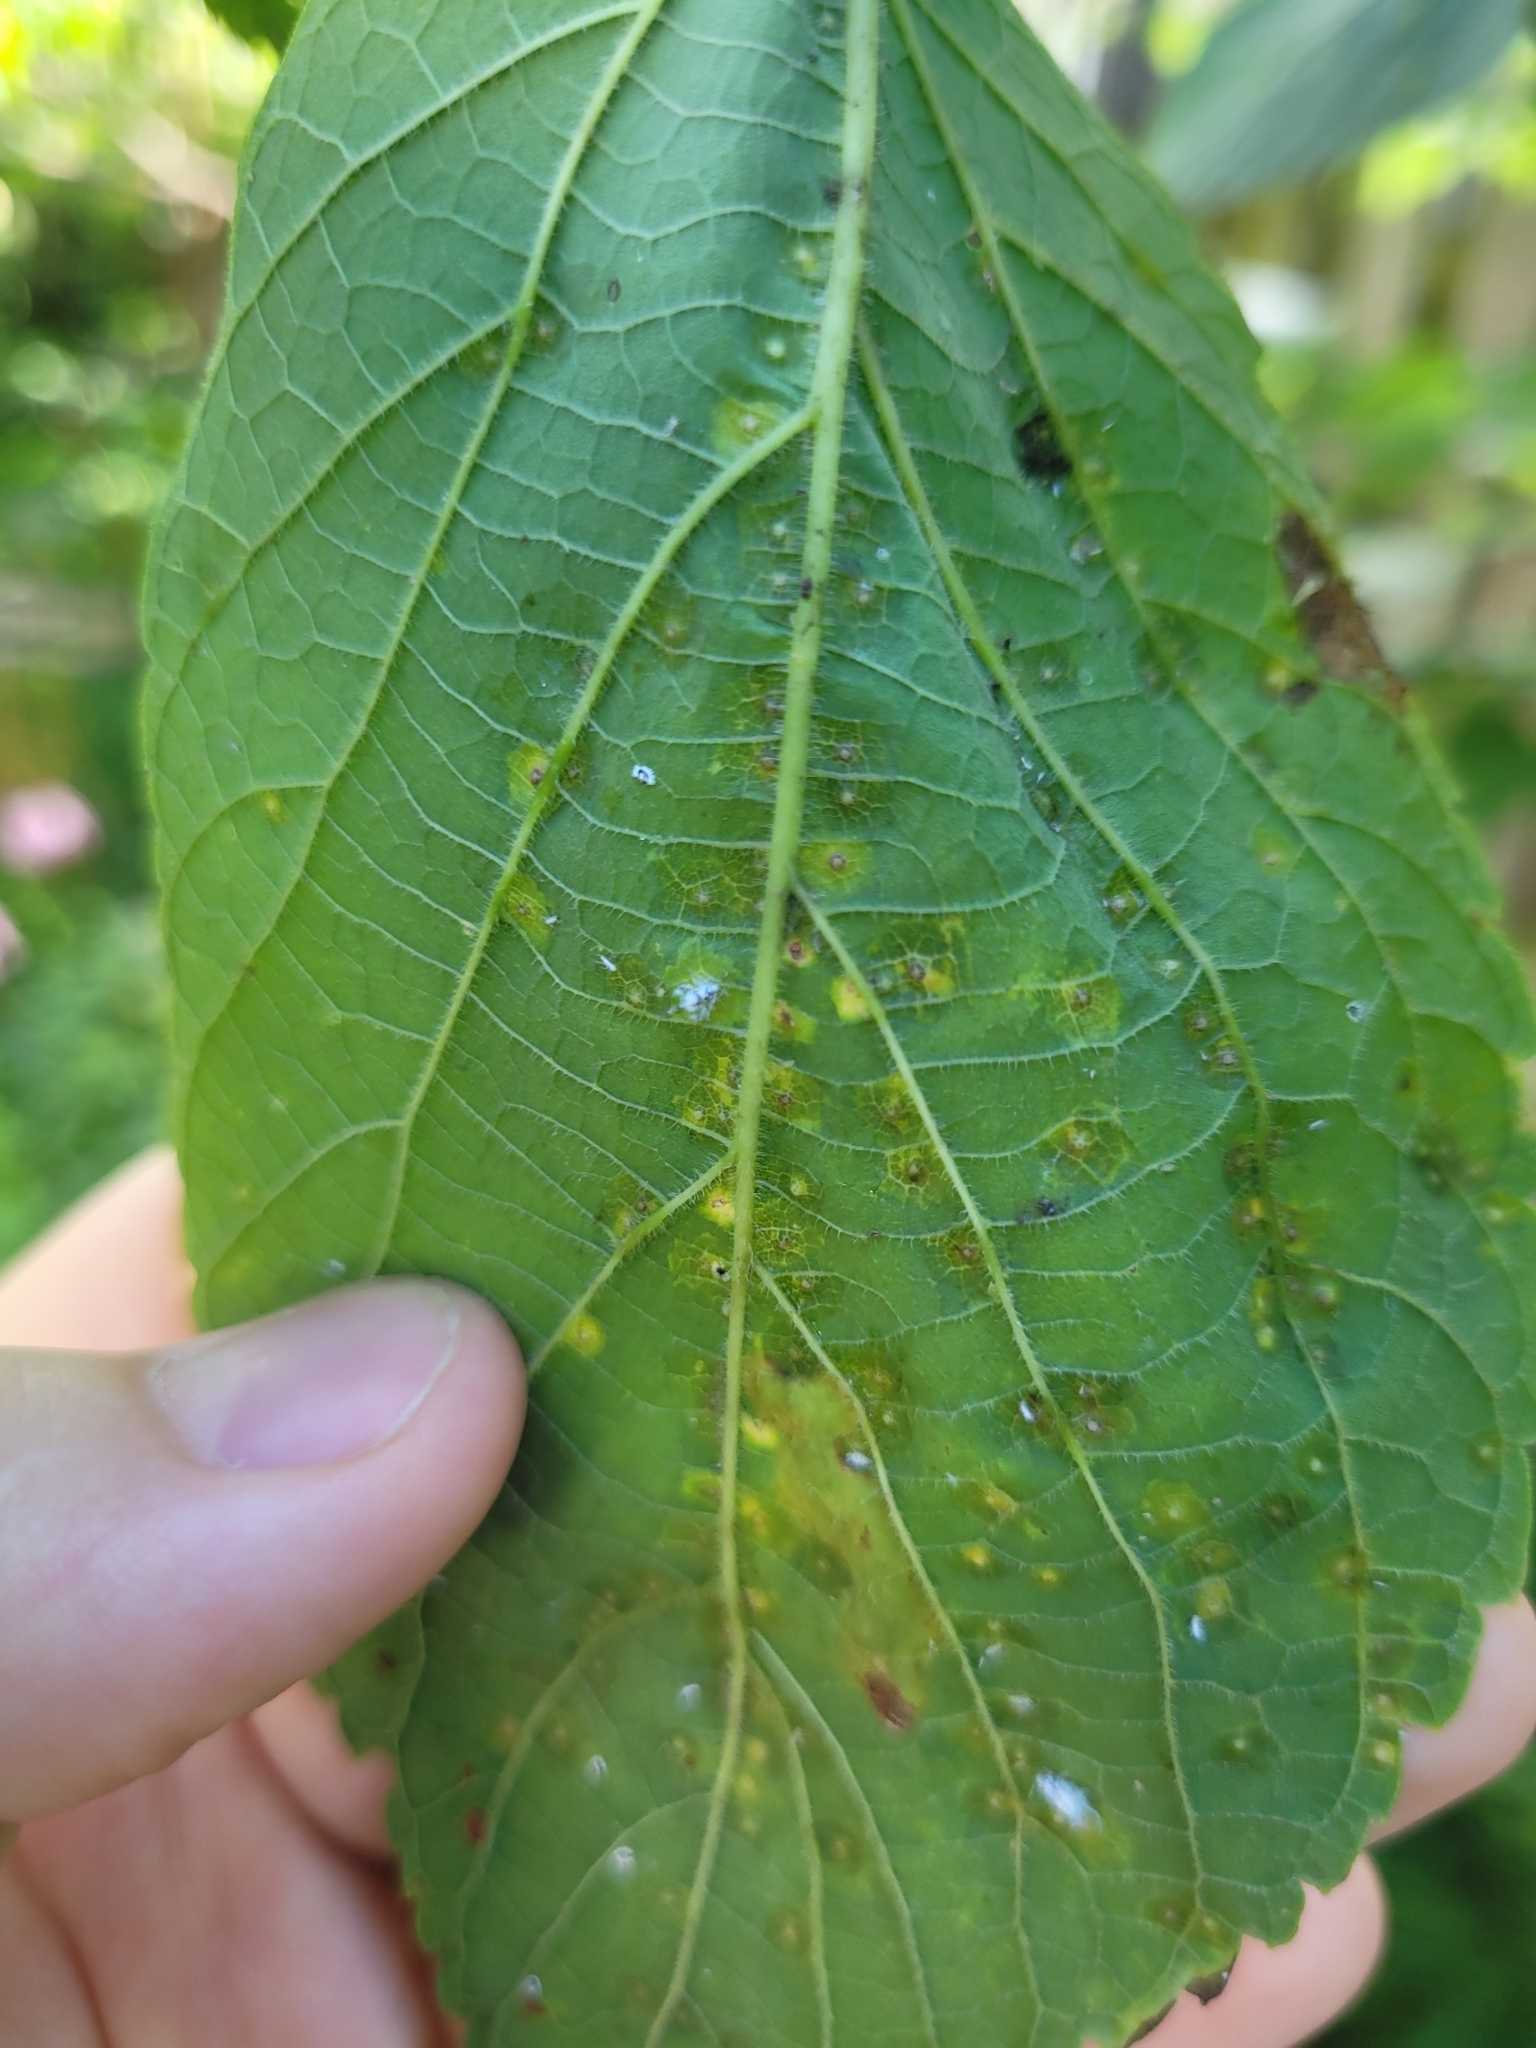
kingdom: Animalia
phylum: Arthropoda
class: Insecta
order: Hemiptera
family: Aphalaridae
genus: Pachypsylla
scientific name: Pachypsylla celtidisvesicula
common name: Hackberry blister gall psyllid
